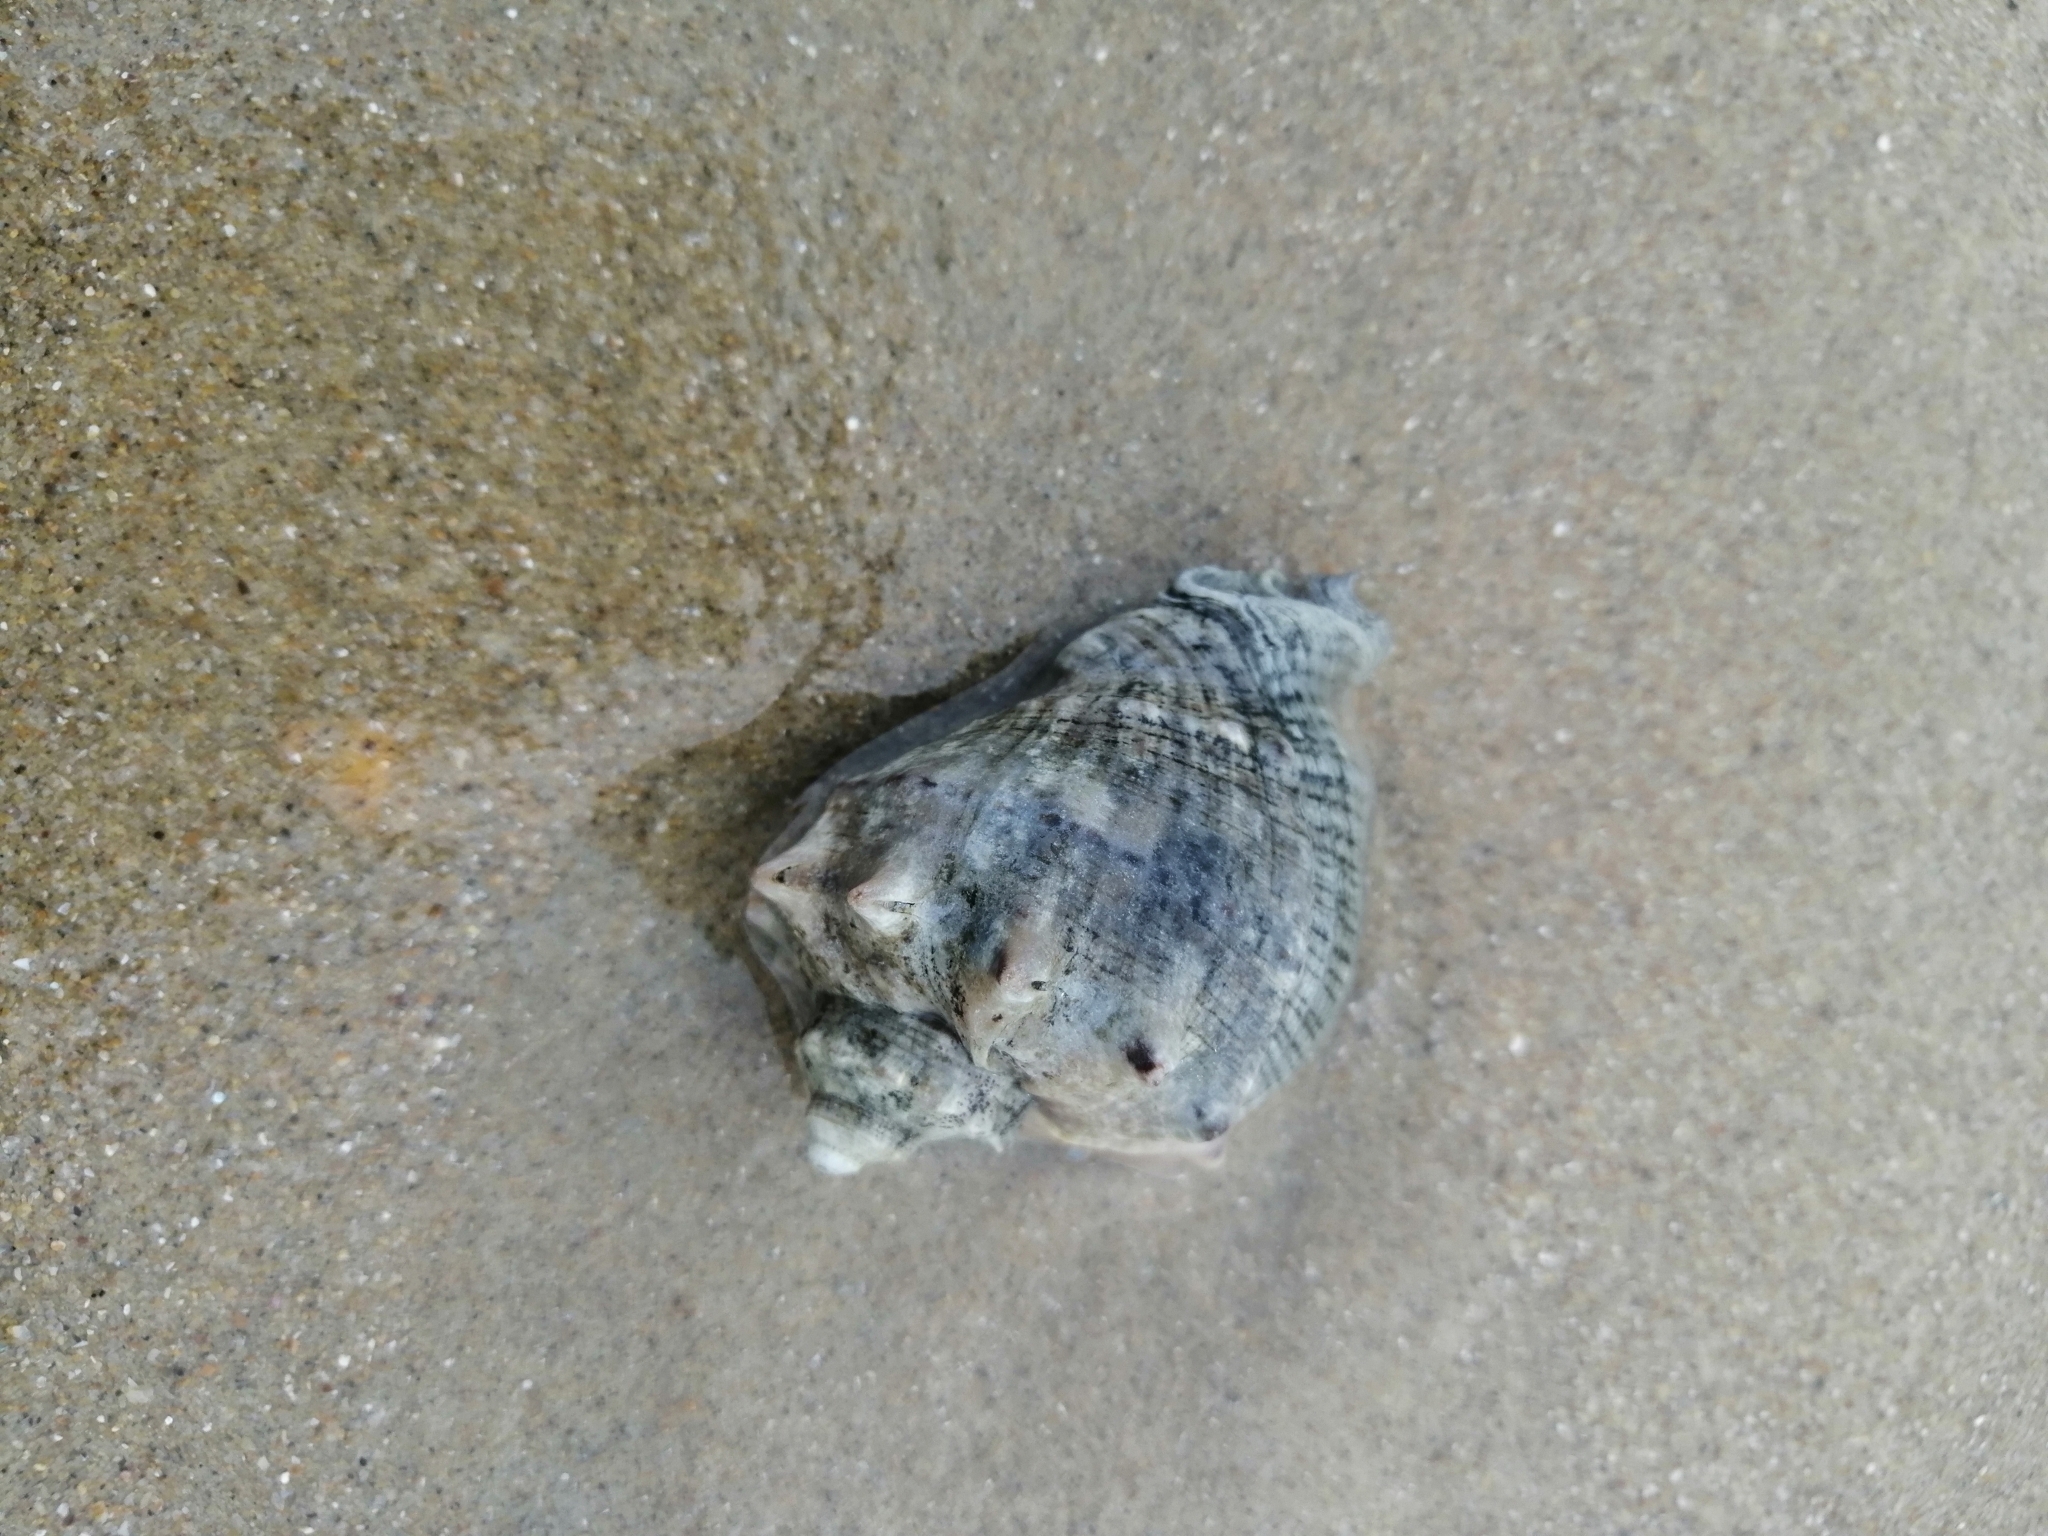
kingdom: Animalia
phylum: Mollusca
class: Gastropoda
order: Neogastropoda
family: Muricidae
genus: Rapana
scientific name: Rapana venosa
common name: Veined rapa whelk
